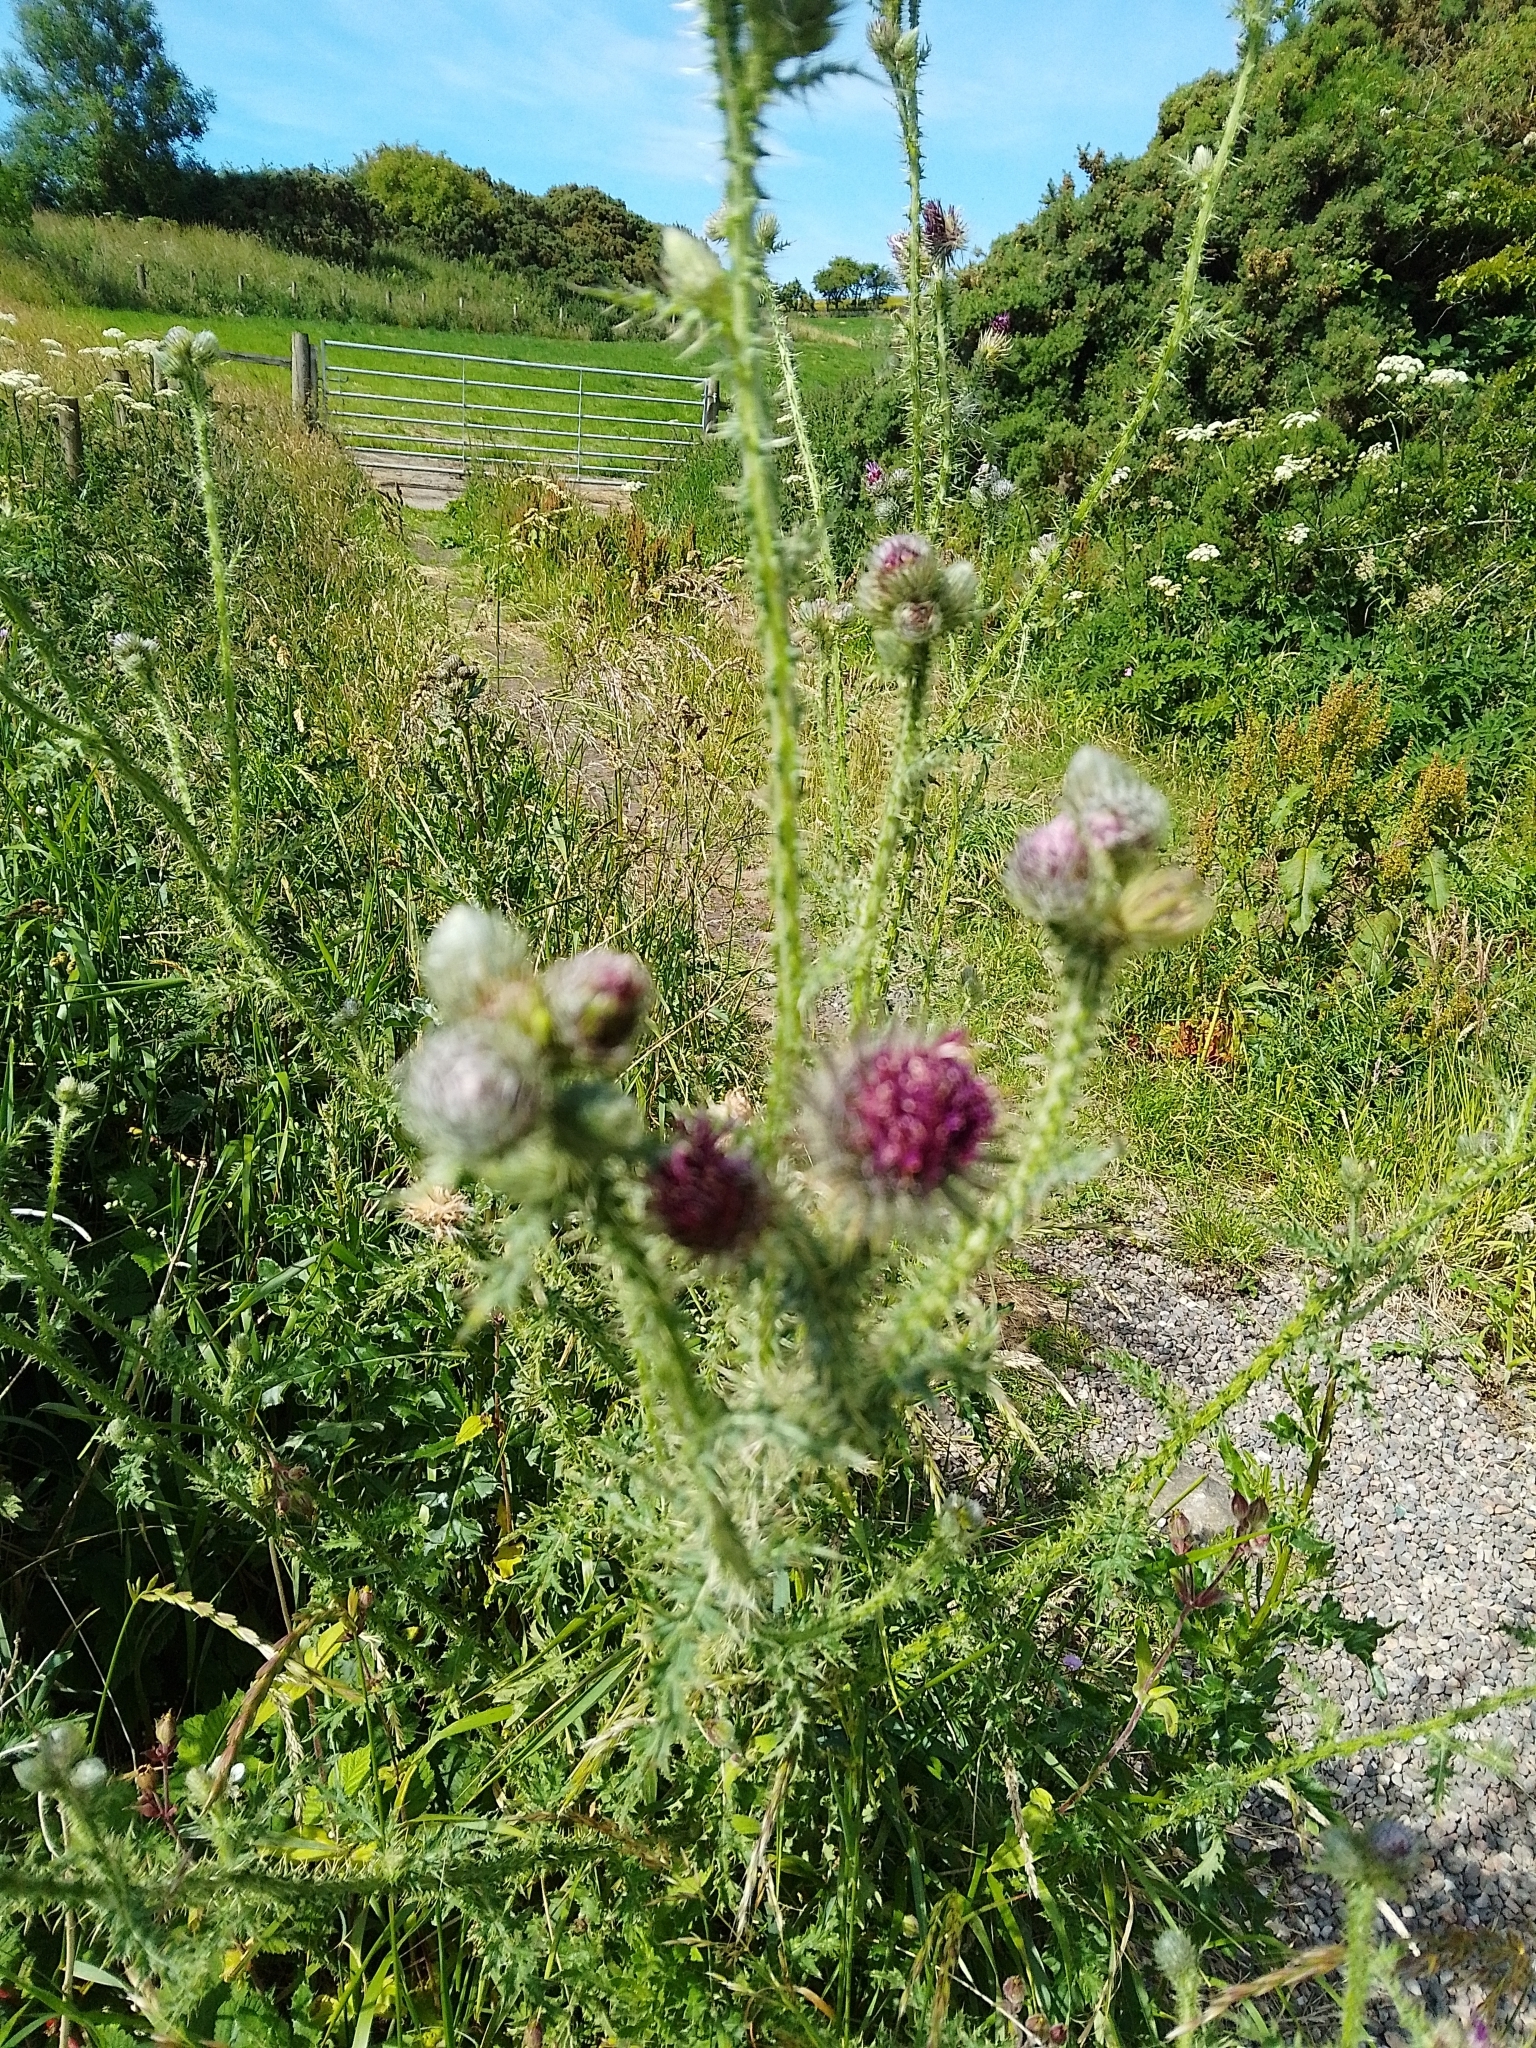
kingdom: Plantae
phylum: Tracheophyta
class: Magnoliopsida
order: Asterales
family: Asteraceae
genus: Carduus
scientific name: Carduus crispus
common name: Welted thistle
